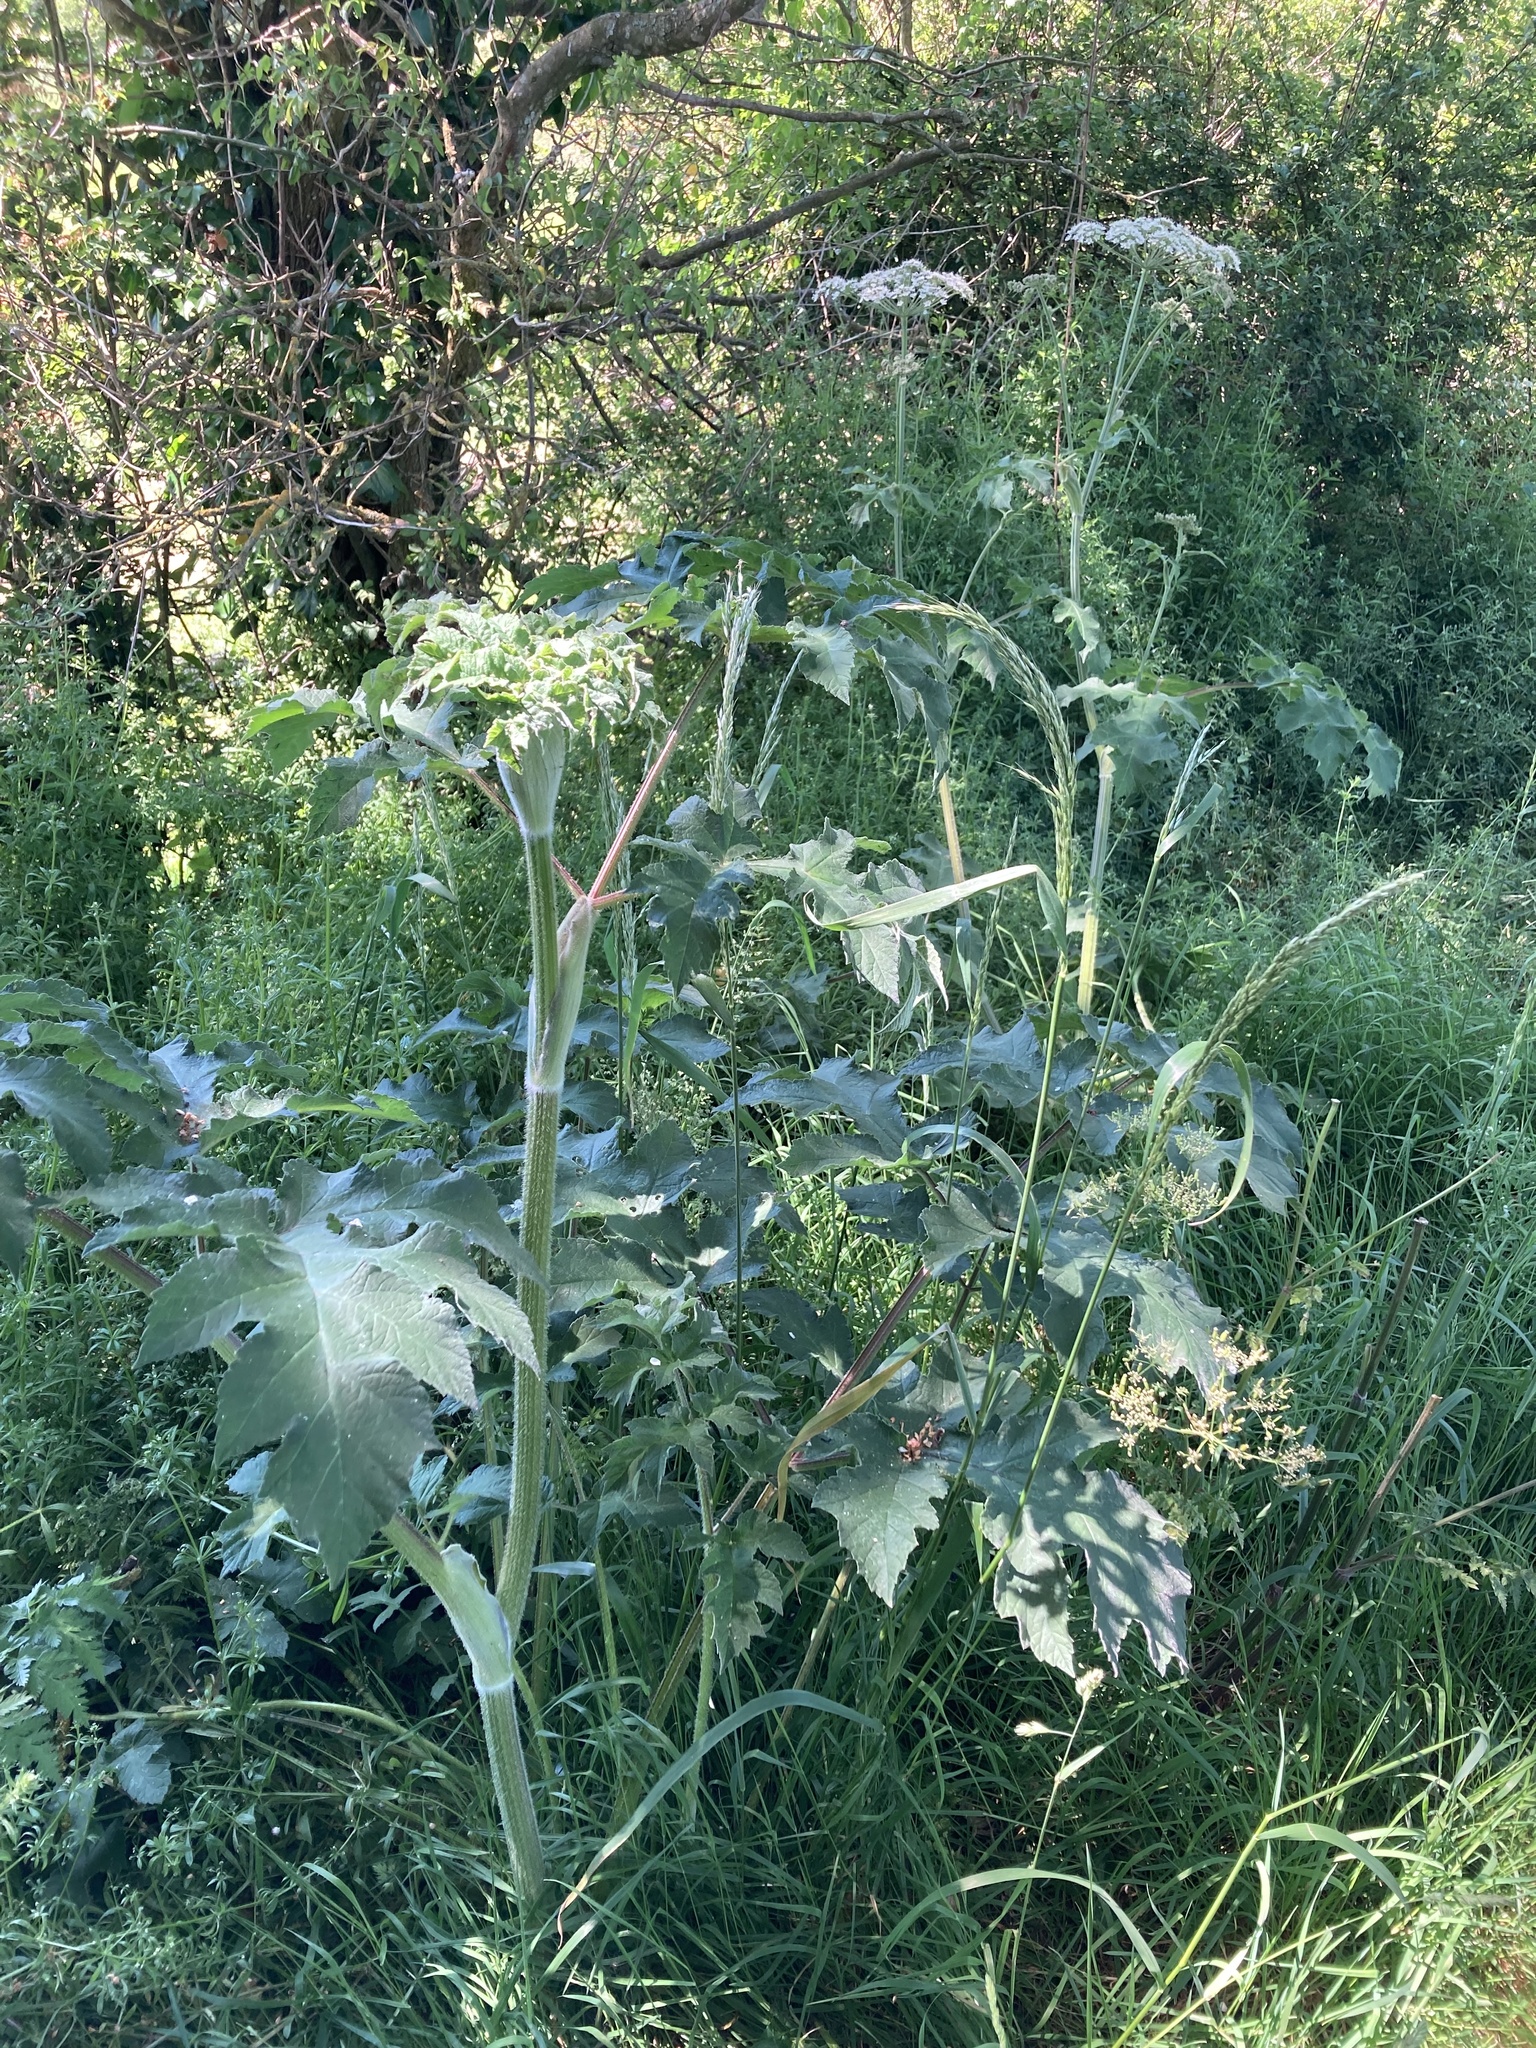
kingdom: Plantae
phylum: Tracheophyta
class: Magnoliopsida
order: Apiales
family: Apiaceae
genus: Heracleum
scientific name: Heracleum sphondylium
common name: Hogweed
